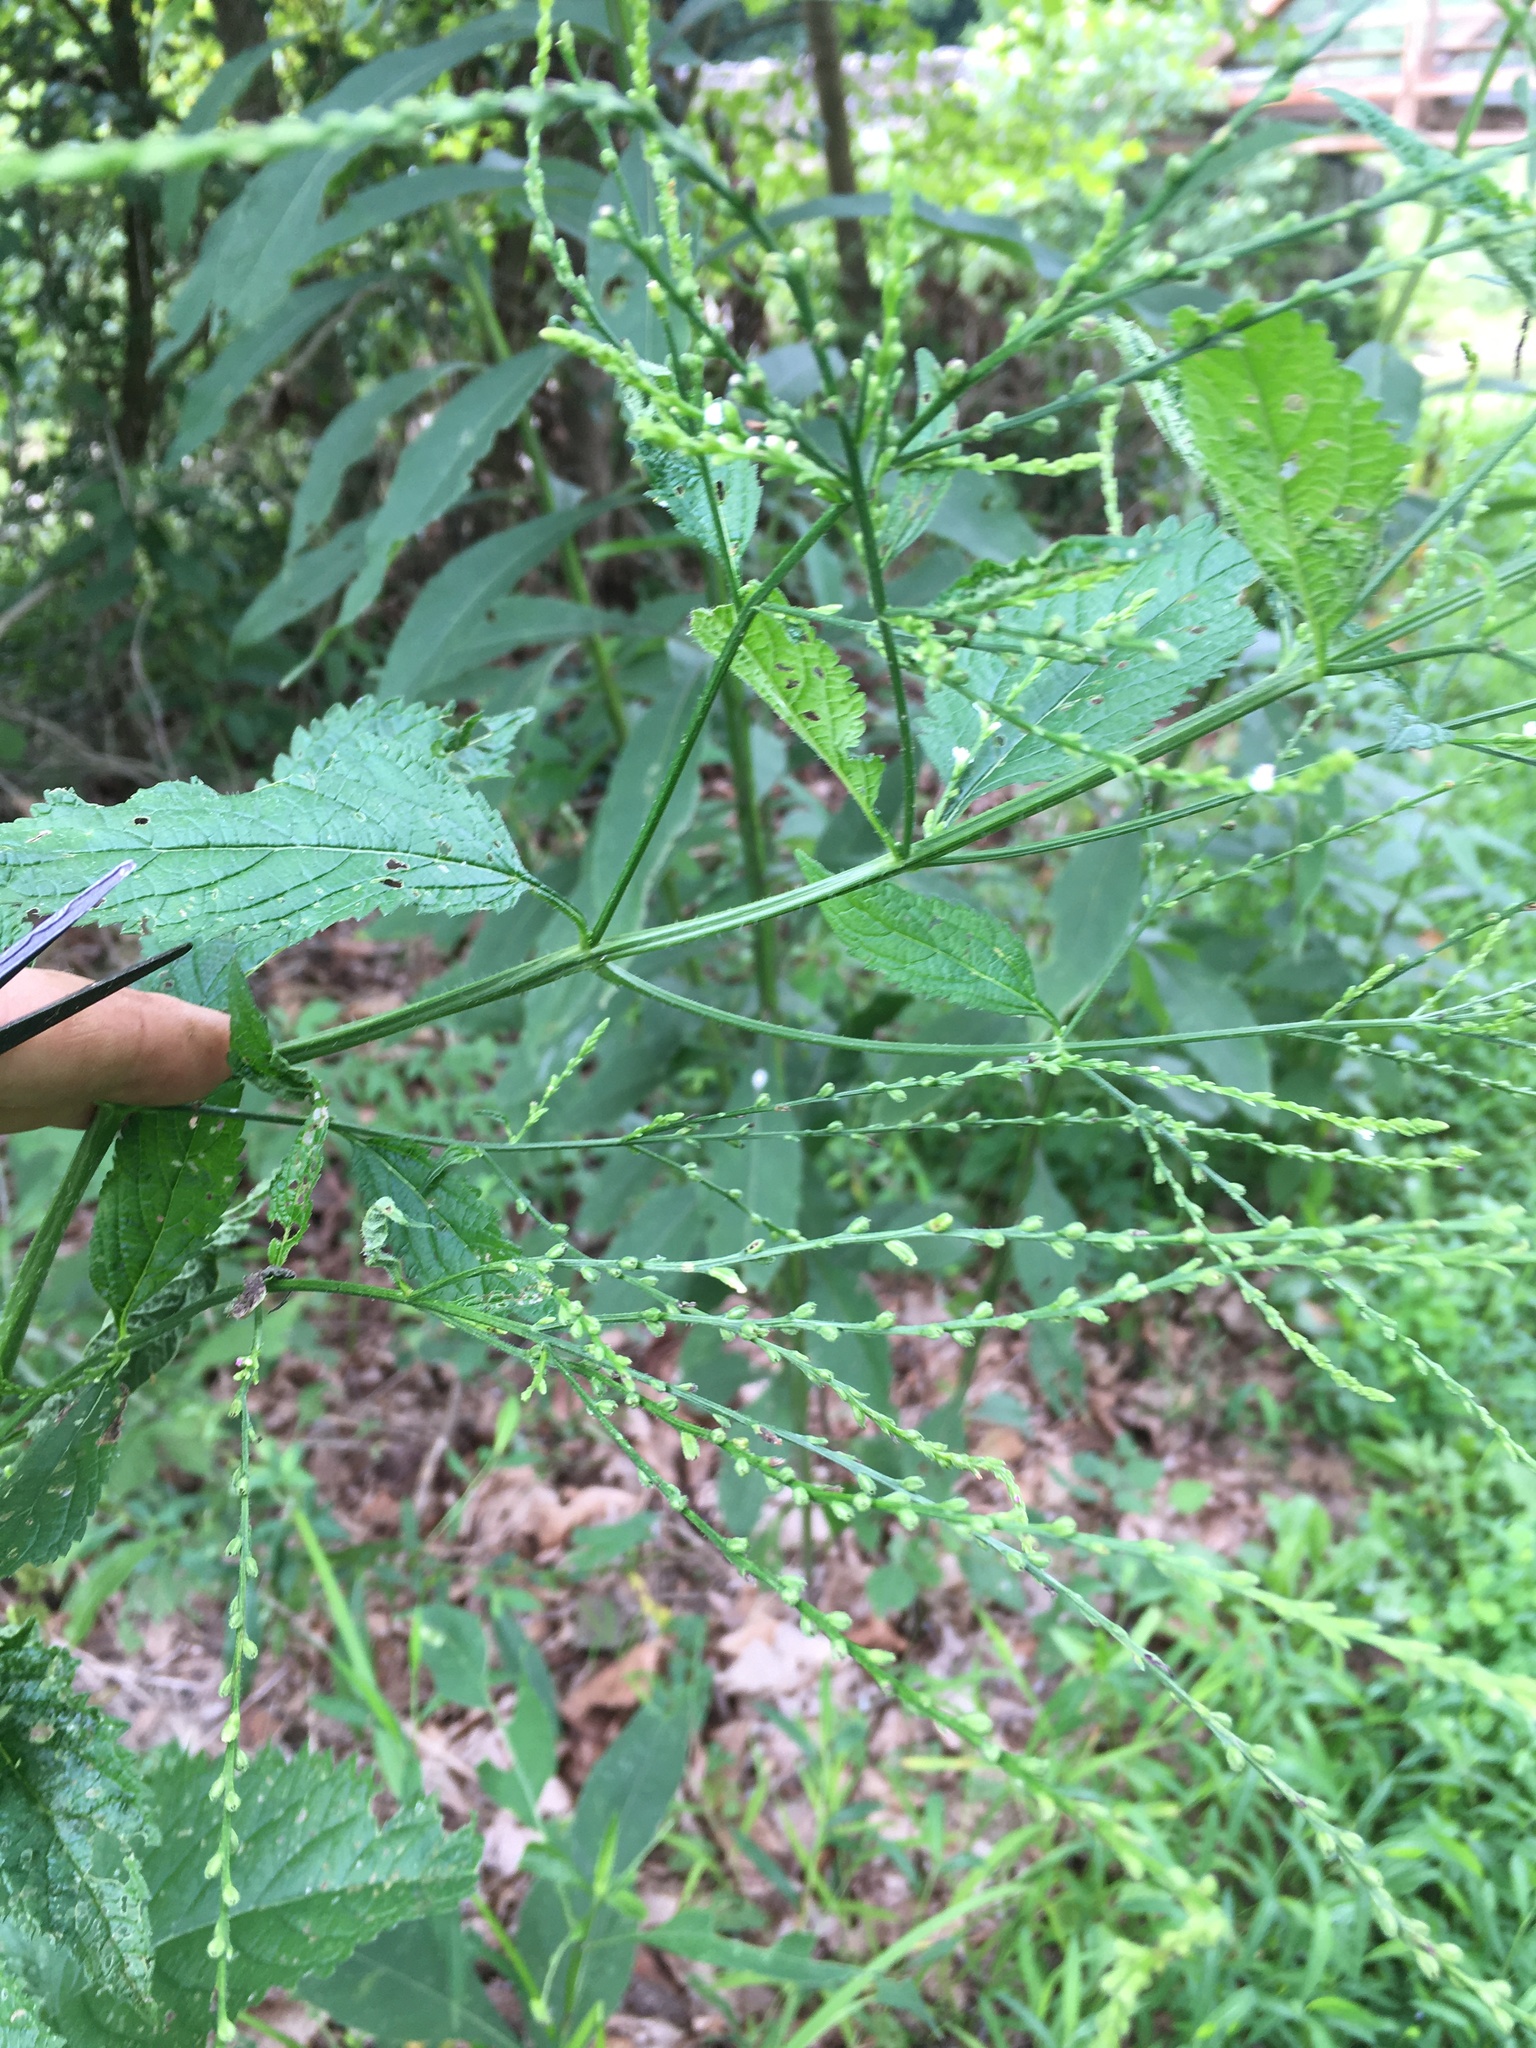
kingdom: Plantae
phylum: Tracheophyta
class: Magnoliopsida
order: Lamiales
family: Verbenaceae
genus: Verbena
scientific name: Verbena urticifolia
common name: Nettle-leaved vervain
